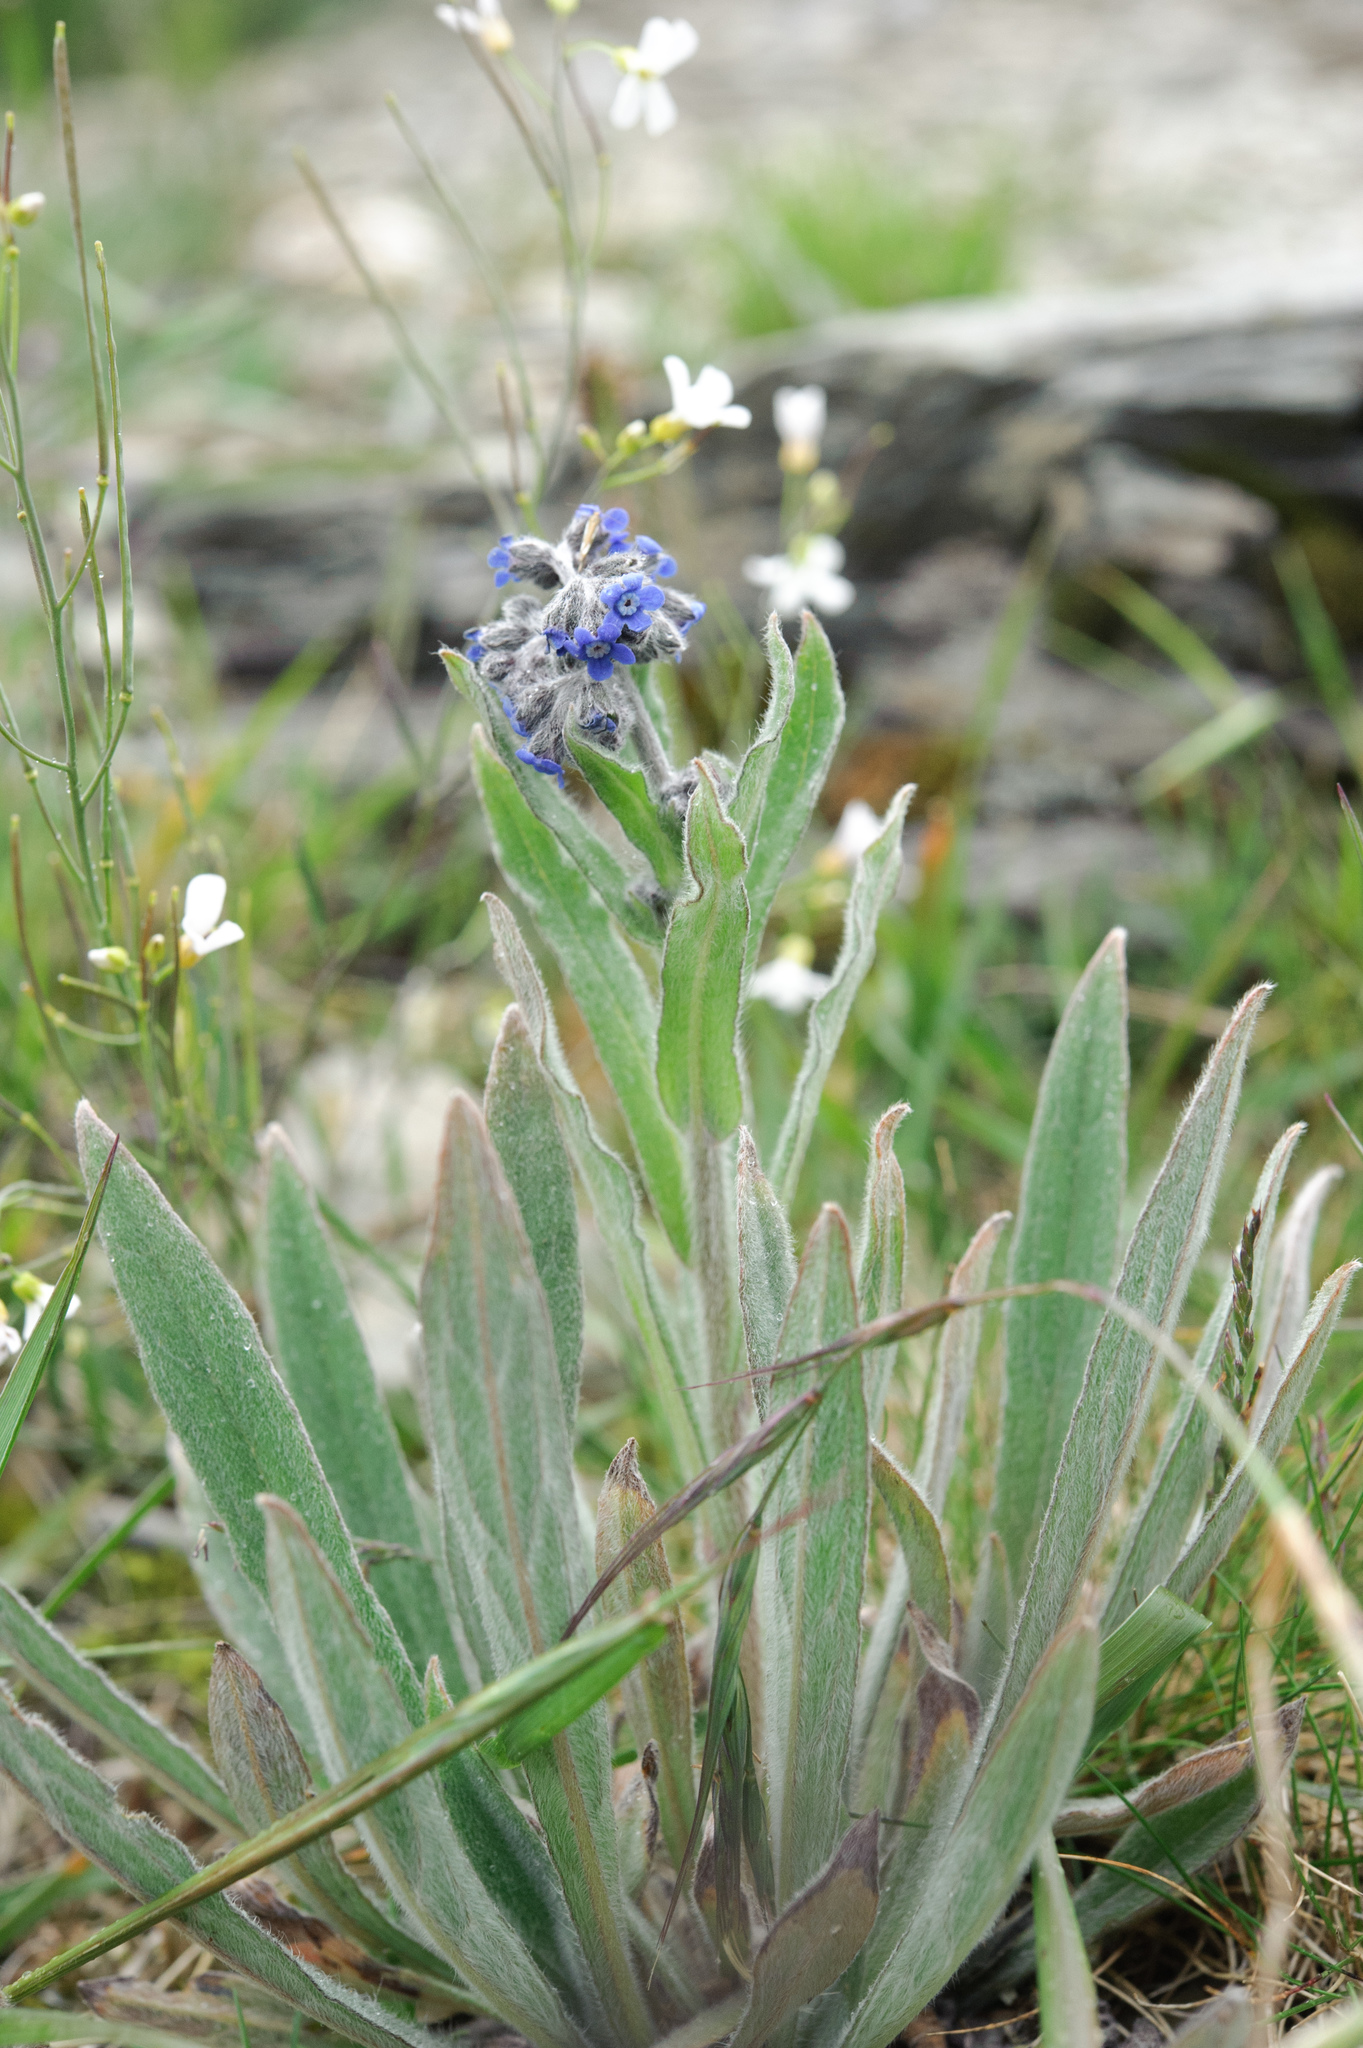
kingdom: Plantae
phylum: Tracheophyta
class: Magnoliopsida
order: Boraginales
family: Boraginaceae
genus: Cynoglossum
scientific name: Cynoglossum alpestre
